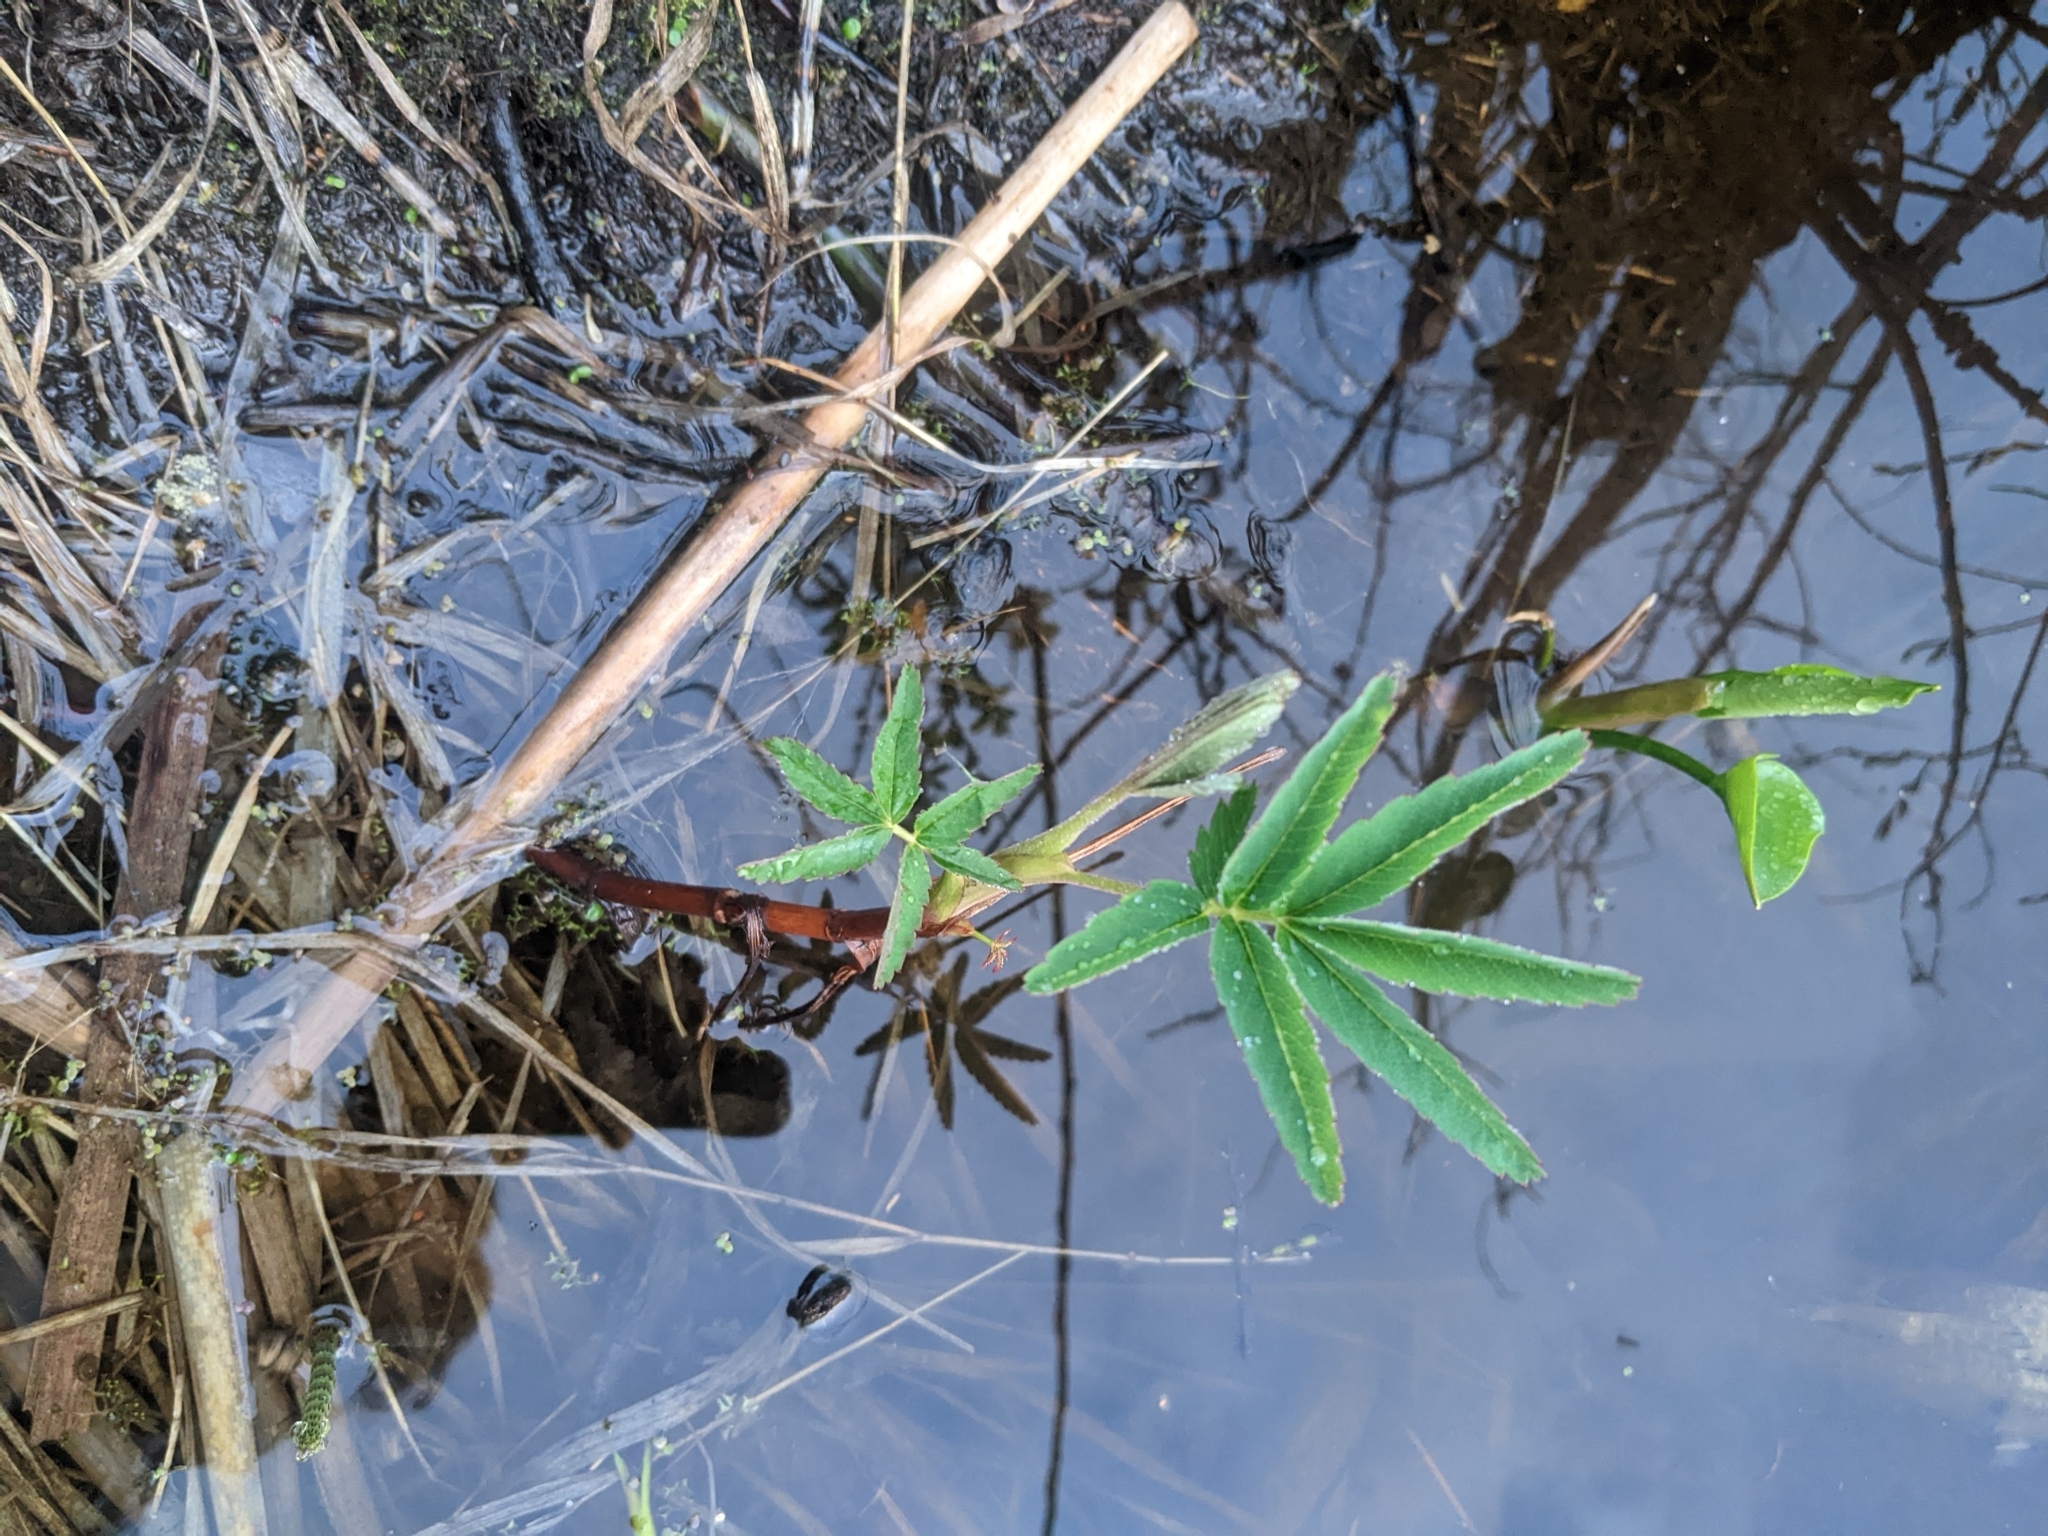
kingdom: Plantae
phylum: Tracheophyta
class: Magnoliopsida
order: Rosales
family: Rosaceae
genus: Comarum
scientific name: Comarum palustre
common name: Marsh cinquefoil
